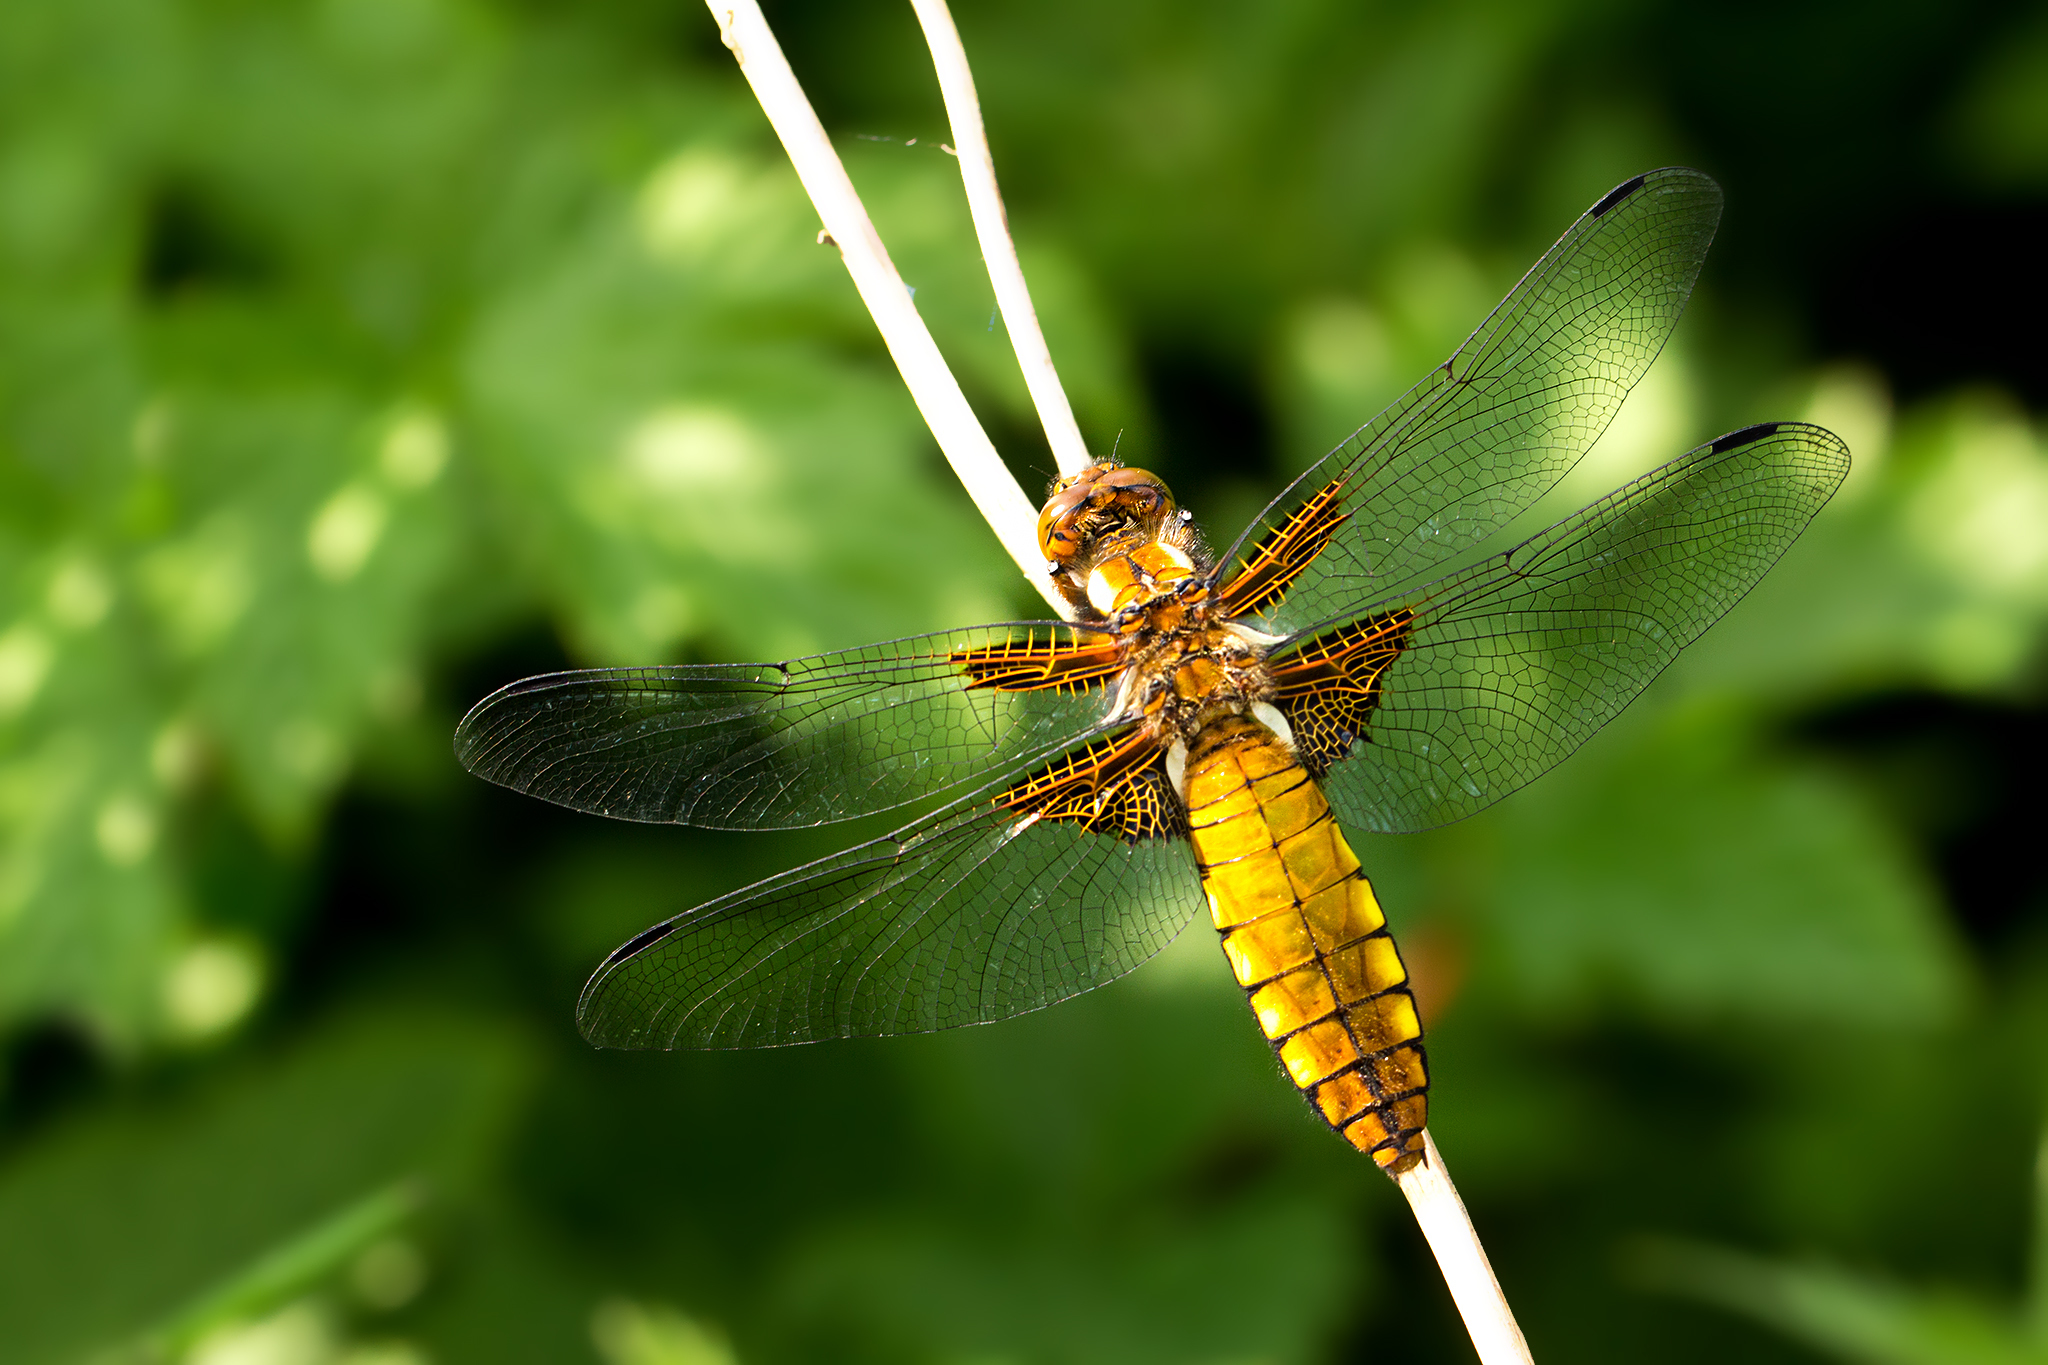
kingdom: Animalia
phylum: Arthropoda
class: Insecta
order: Odonata
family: Libellulidae
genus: Libellula
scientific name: Libellula depressa
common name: Broad-bodied chaser
